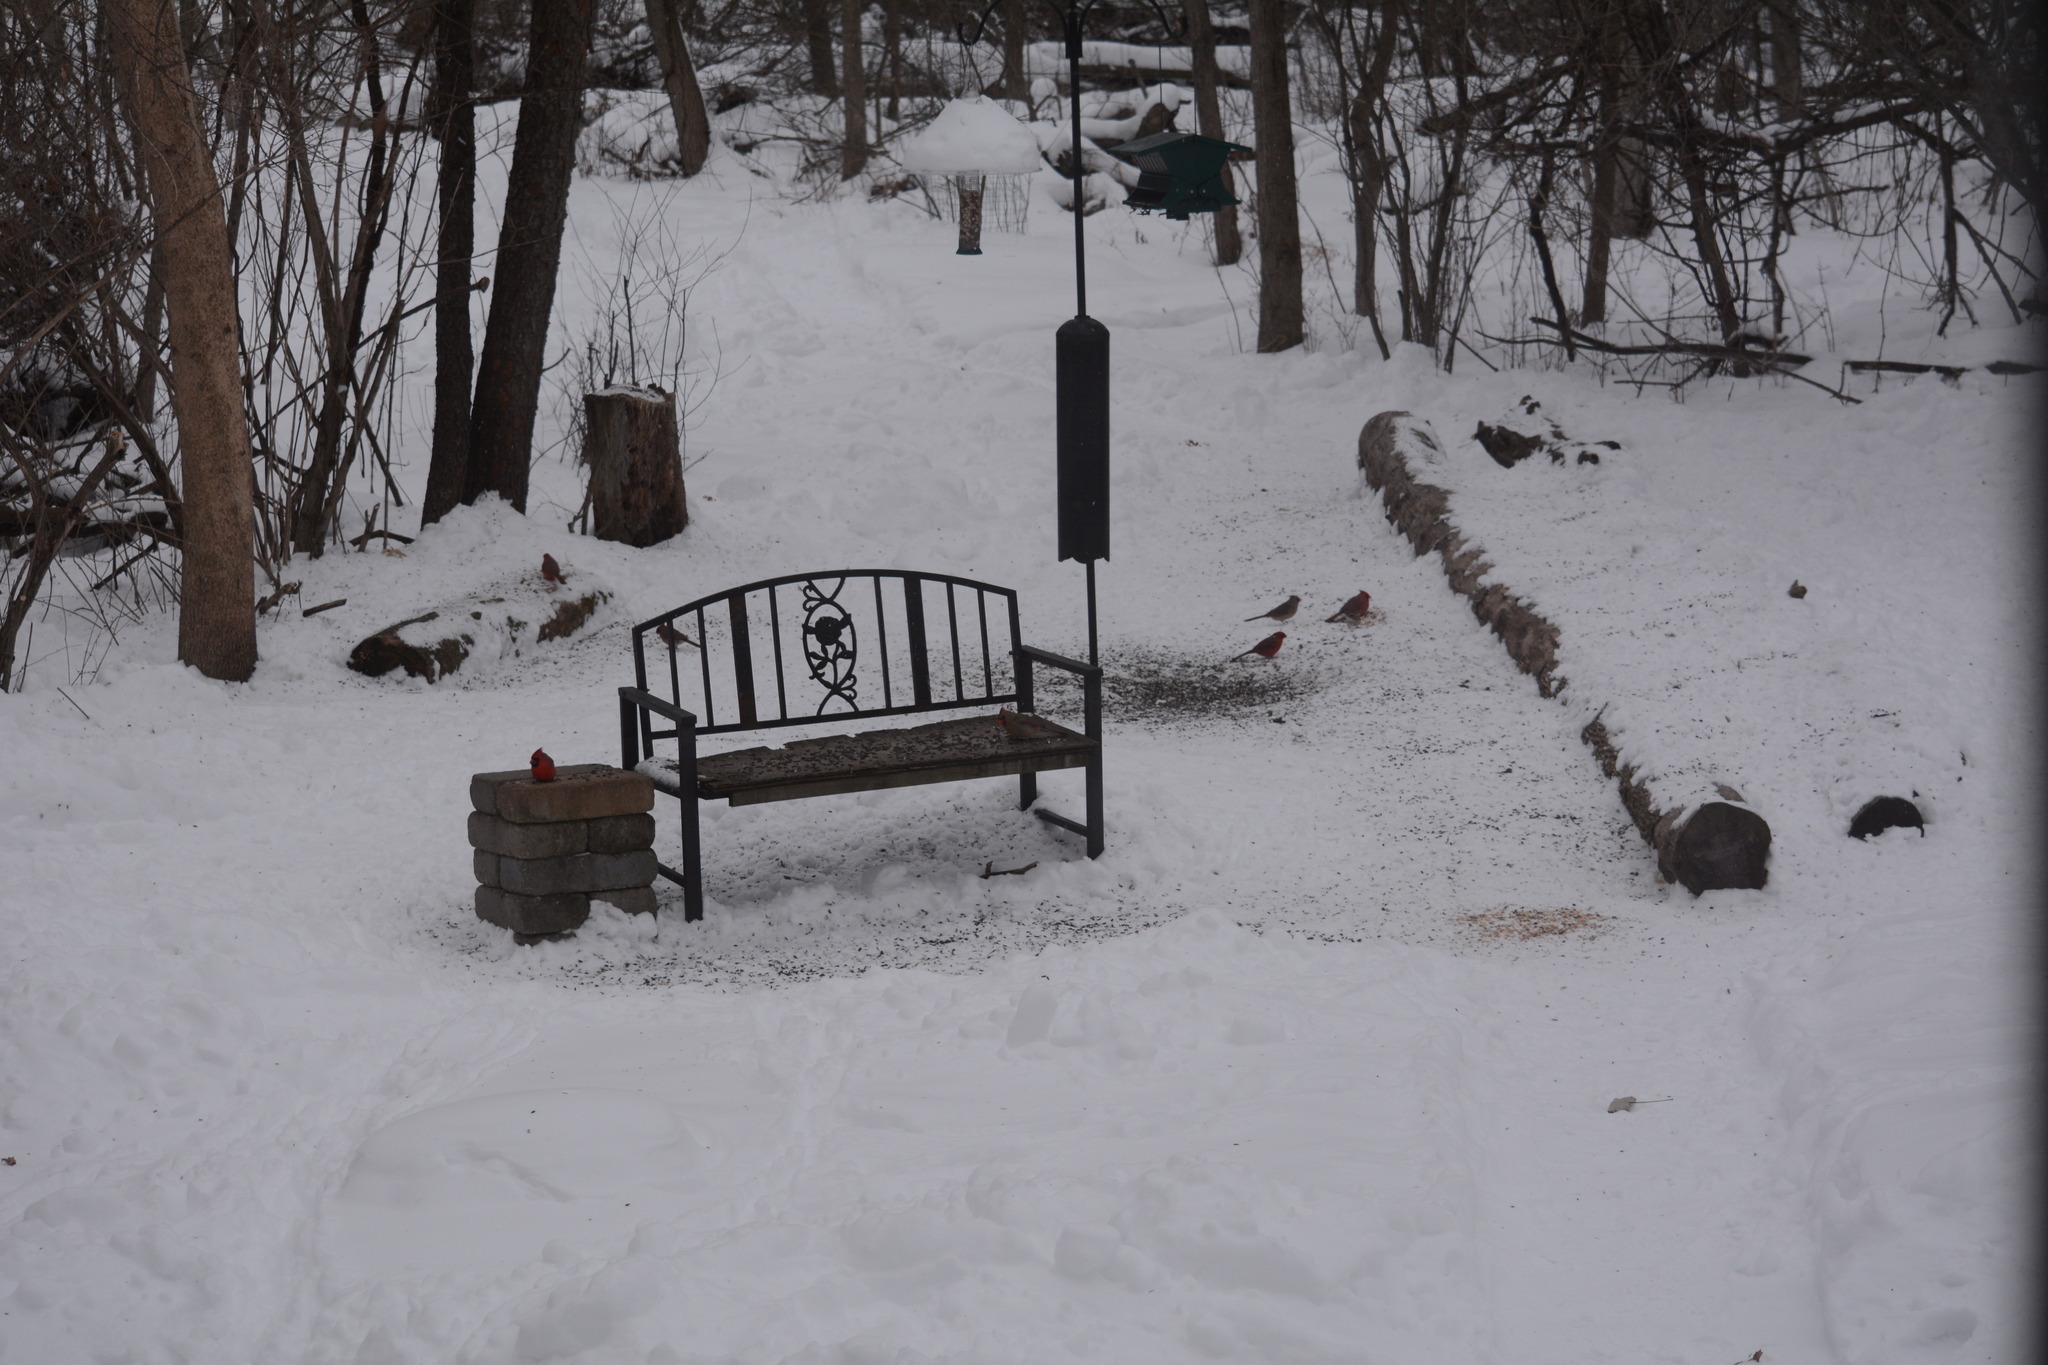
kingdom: Animalia
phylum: Chordata
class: Aves
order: Passeriformes
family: Cardinalidae
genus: Cardinalis
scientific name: Cardinalis cardinalis
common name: Northern cardinal
